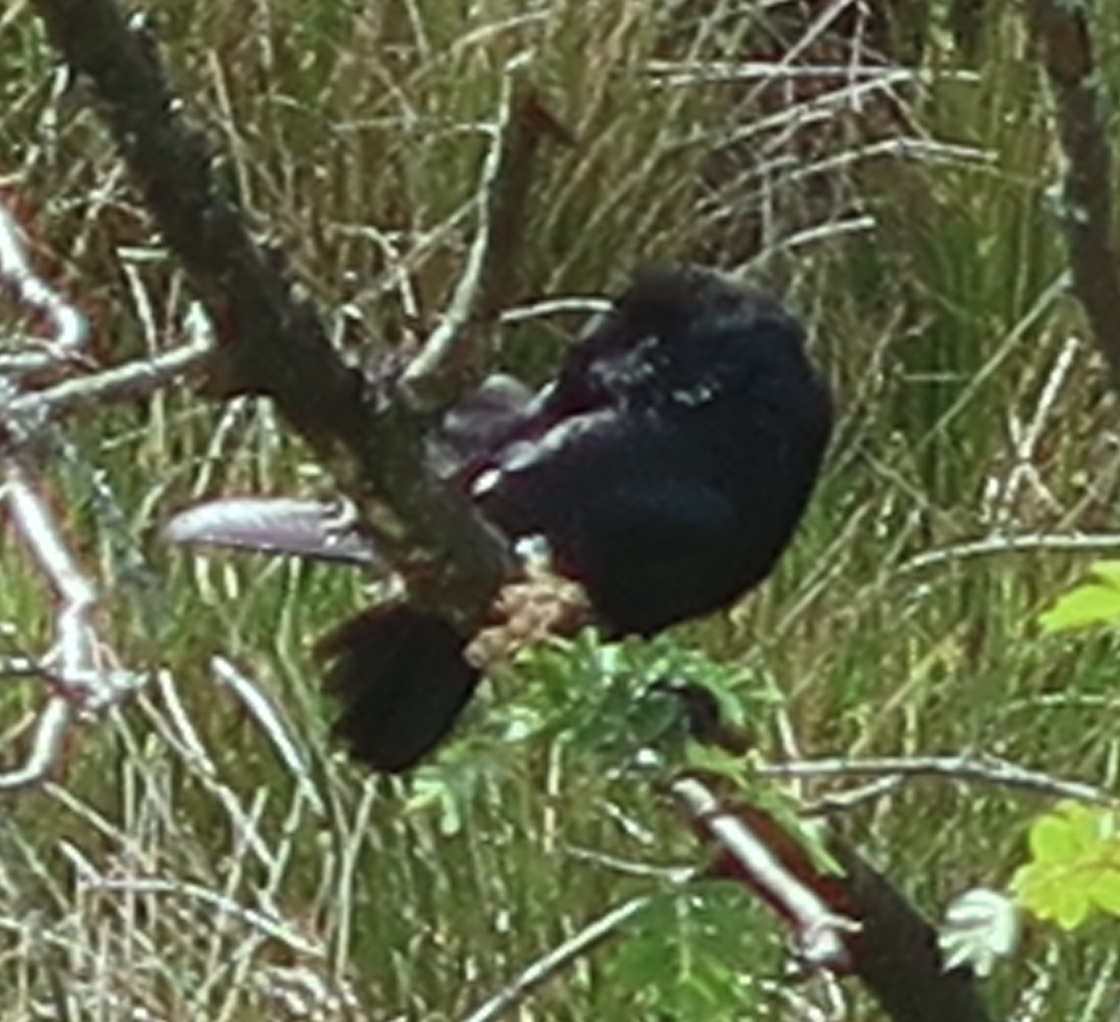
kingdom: Animalia
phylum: Chordata
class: Aves
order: Passeriformes
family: Corvidae
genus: Coloeus
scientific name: Coloeus monedula
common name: Western jackdaw
